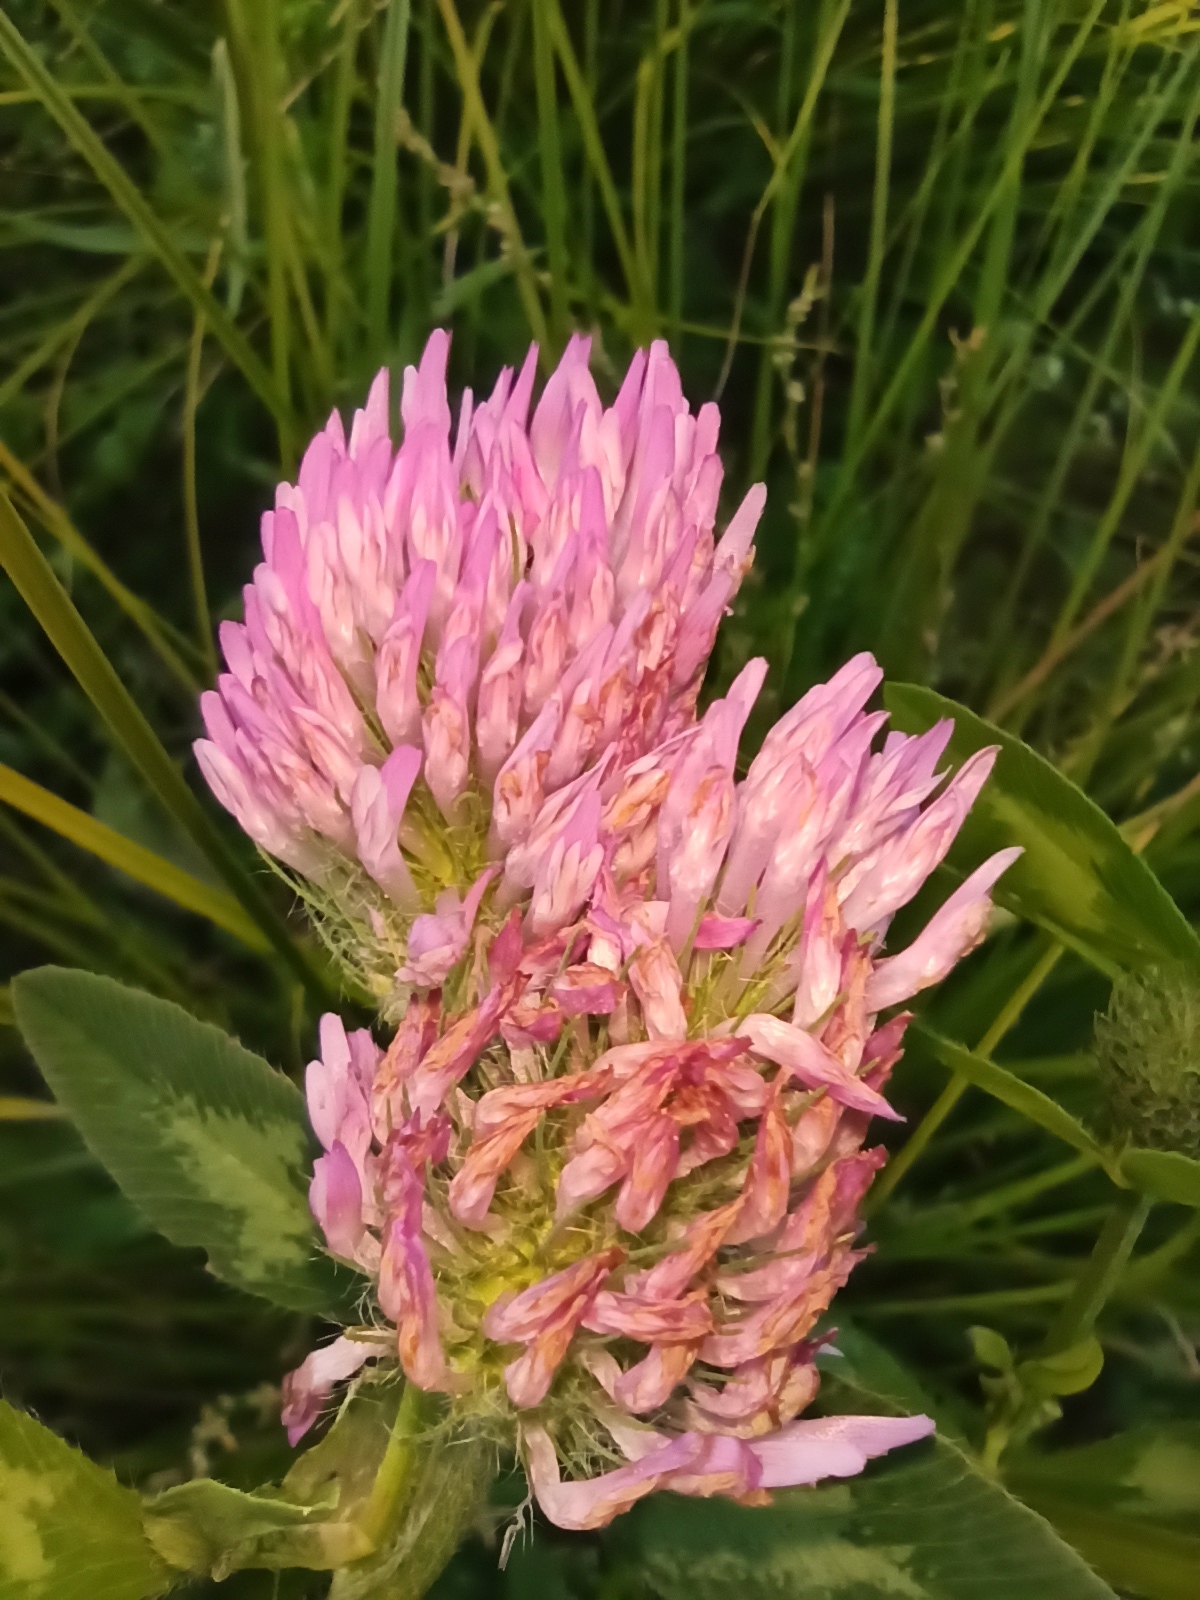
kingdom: Plantae
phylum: Tracheophyta
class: Magnoliopsida
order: Fabales
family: Fabaceae
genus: Trifolium
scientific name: Trifolium pratense
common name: Red clover
